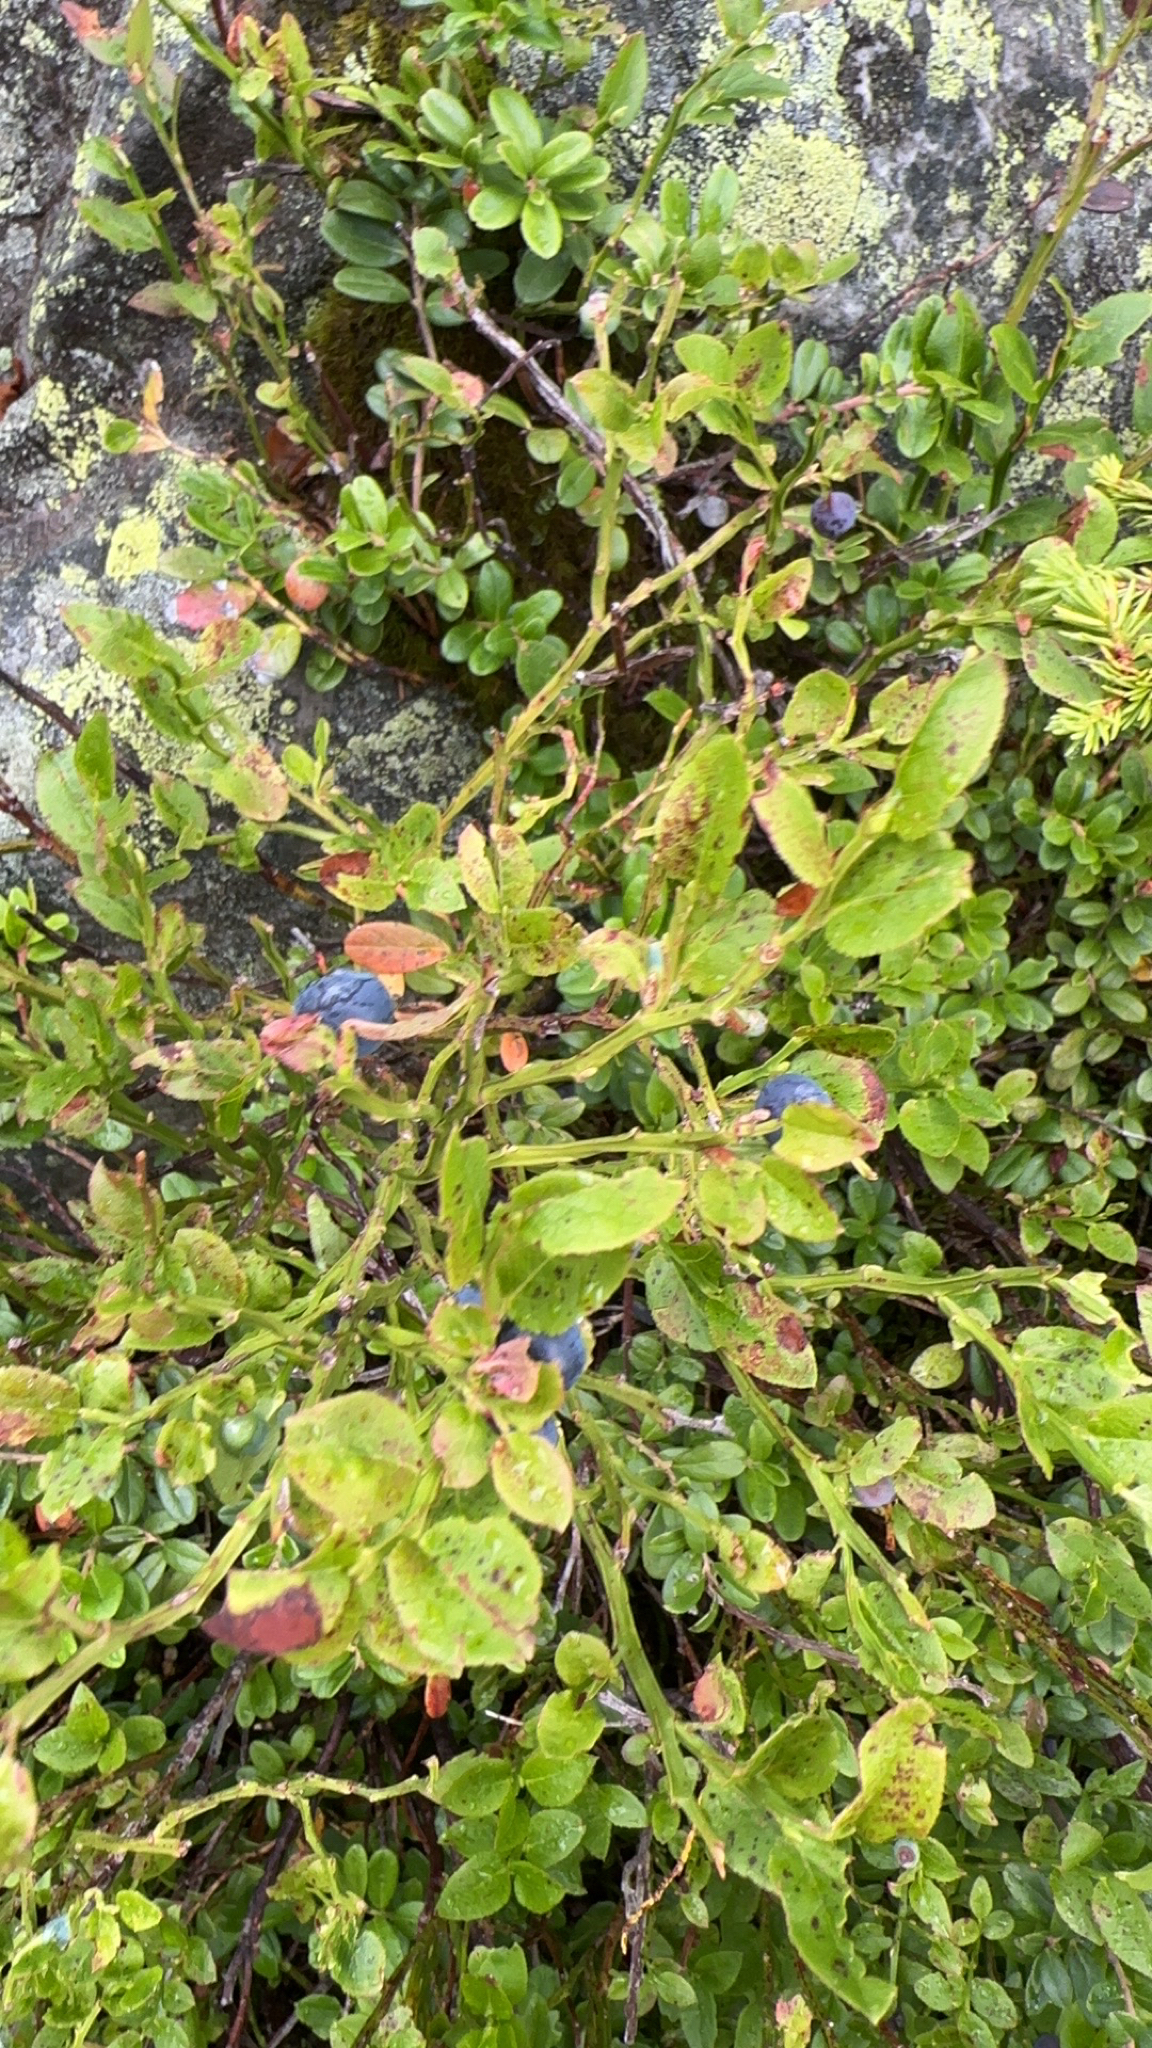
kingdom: Plantae
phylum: Tracheophyta
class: Magnoliopsida
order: Ericales
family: Ericaceae
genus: Vaccinium
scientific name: Vaccinium myrtillus
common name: Bilberry
